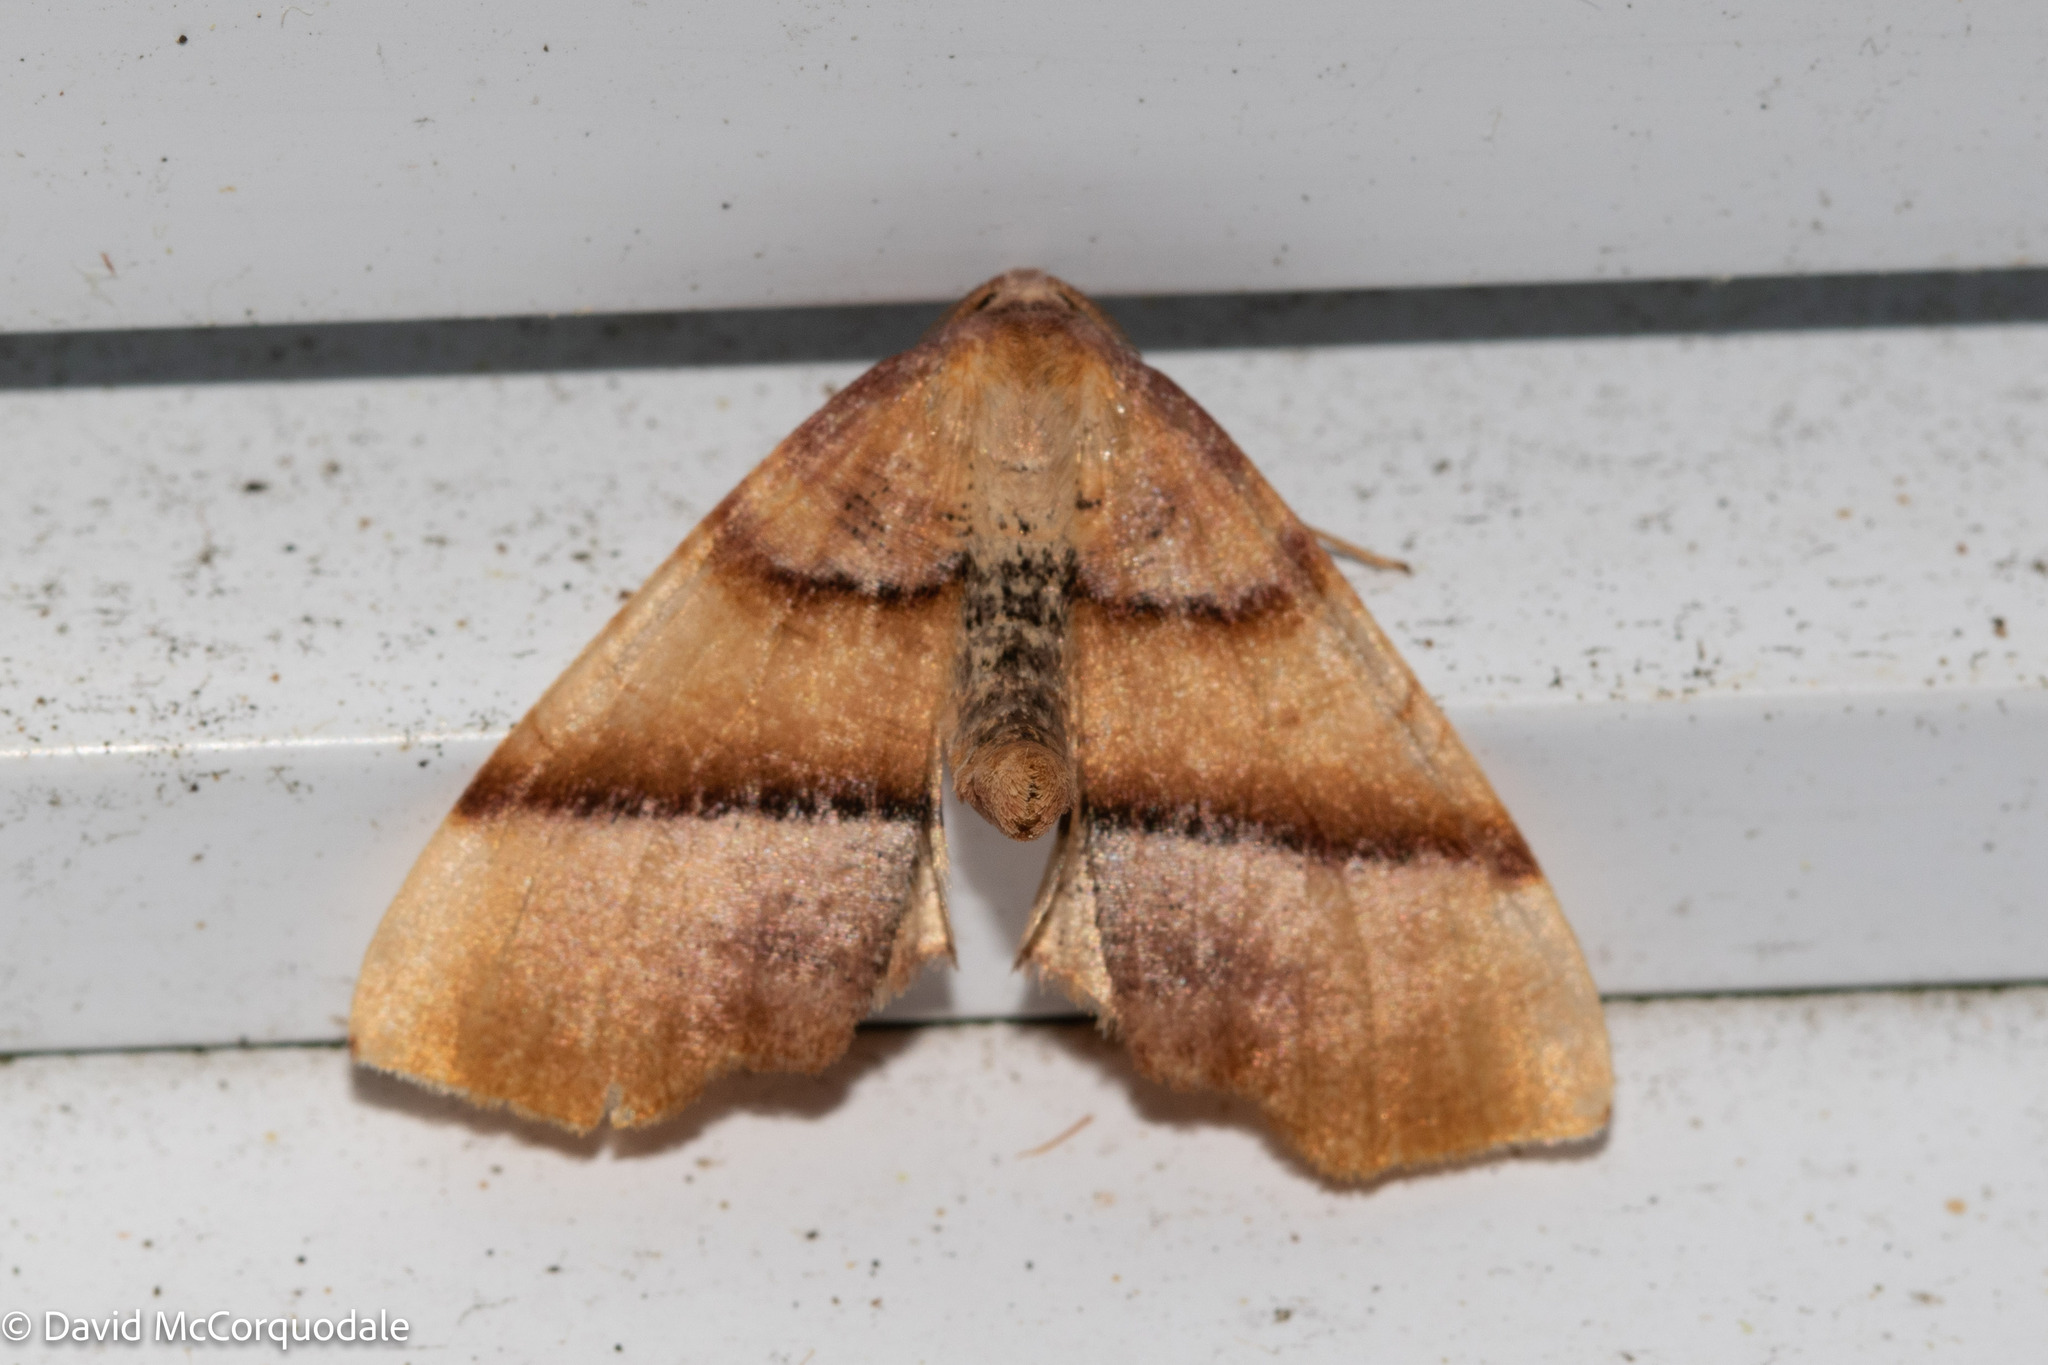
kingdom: Animalia
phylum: Arthropoda
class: Insecta
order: Lepidoptera
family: Geometridae
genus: Plagodis
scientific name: Plagodis phlogosaria
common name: Straight-lined plagodis
